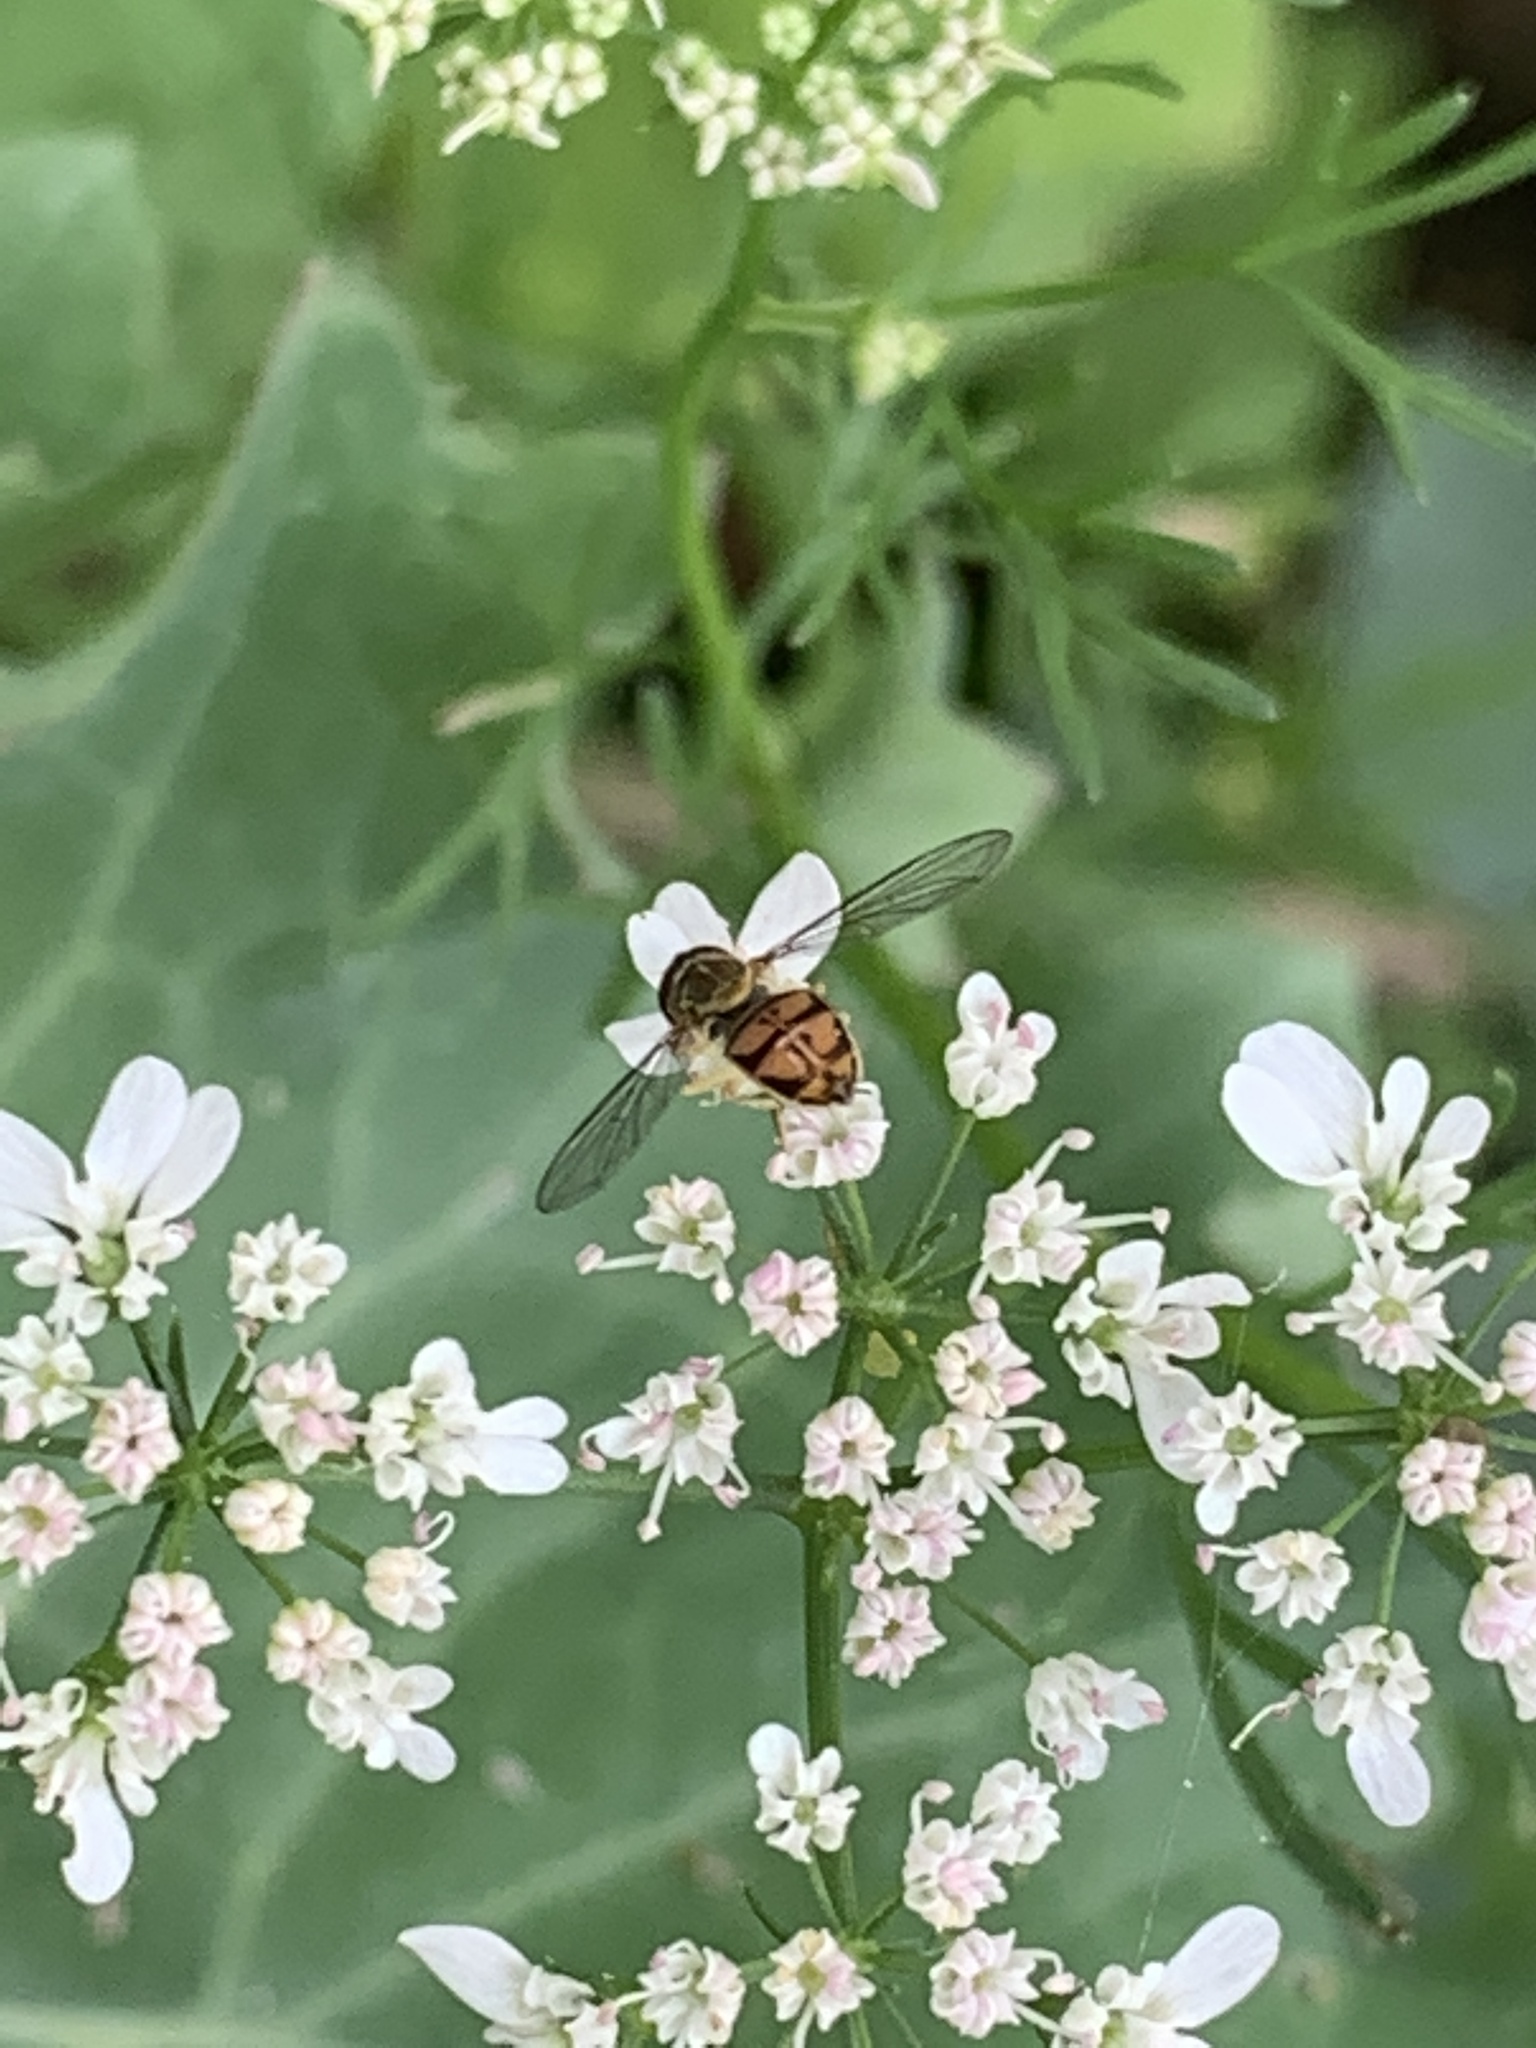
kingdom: Animalia
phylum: Arthropoda
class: Insecta
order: Diptera
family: Syrphidae
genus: Toxomerus
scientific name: Toxomerus marginatus
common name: Syrphid fly
